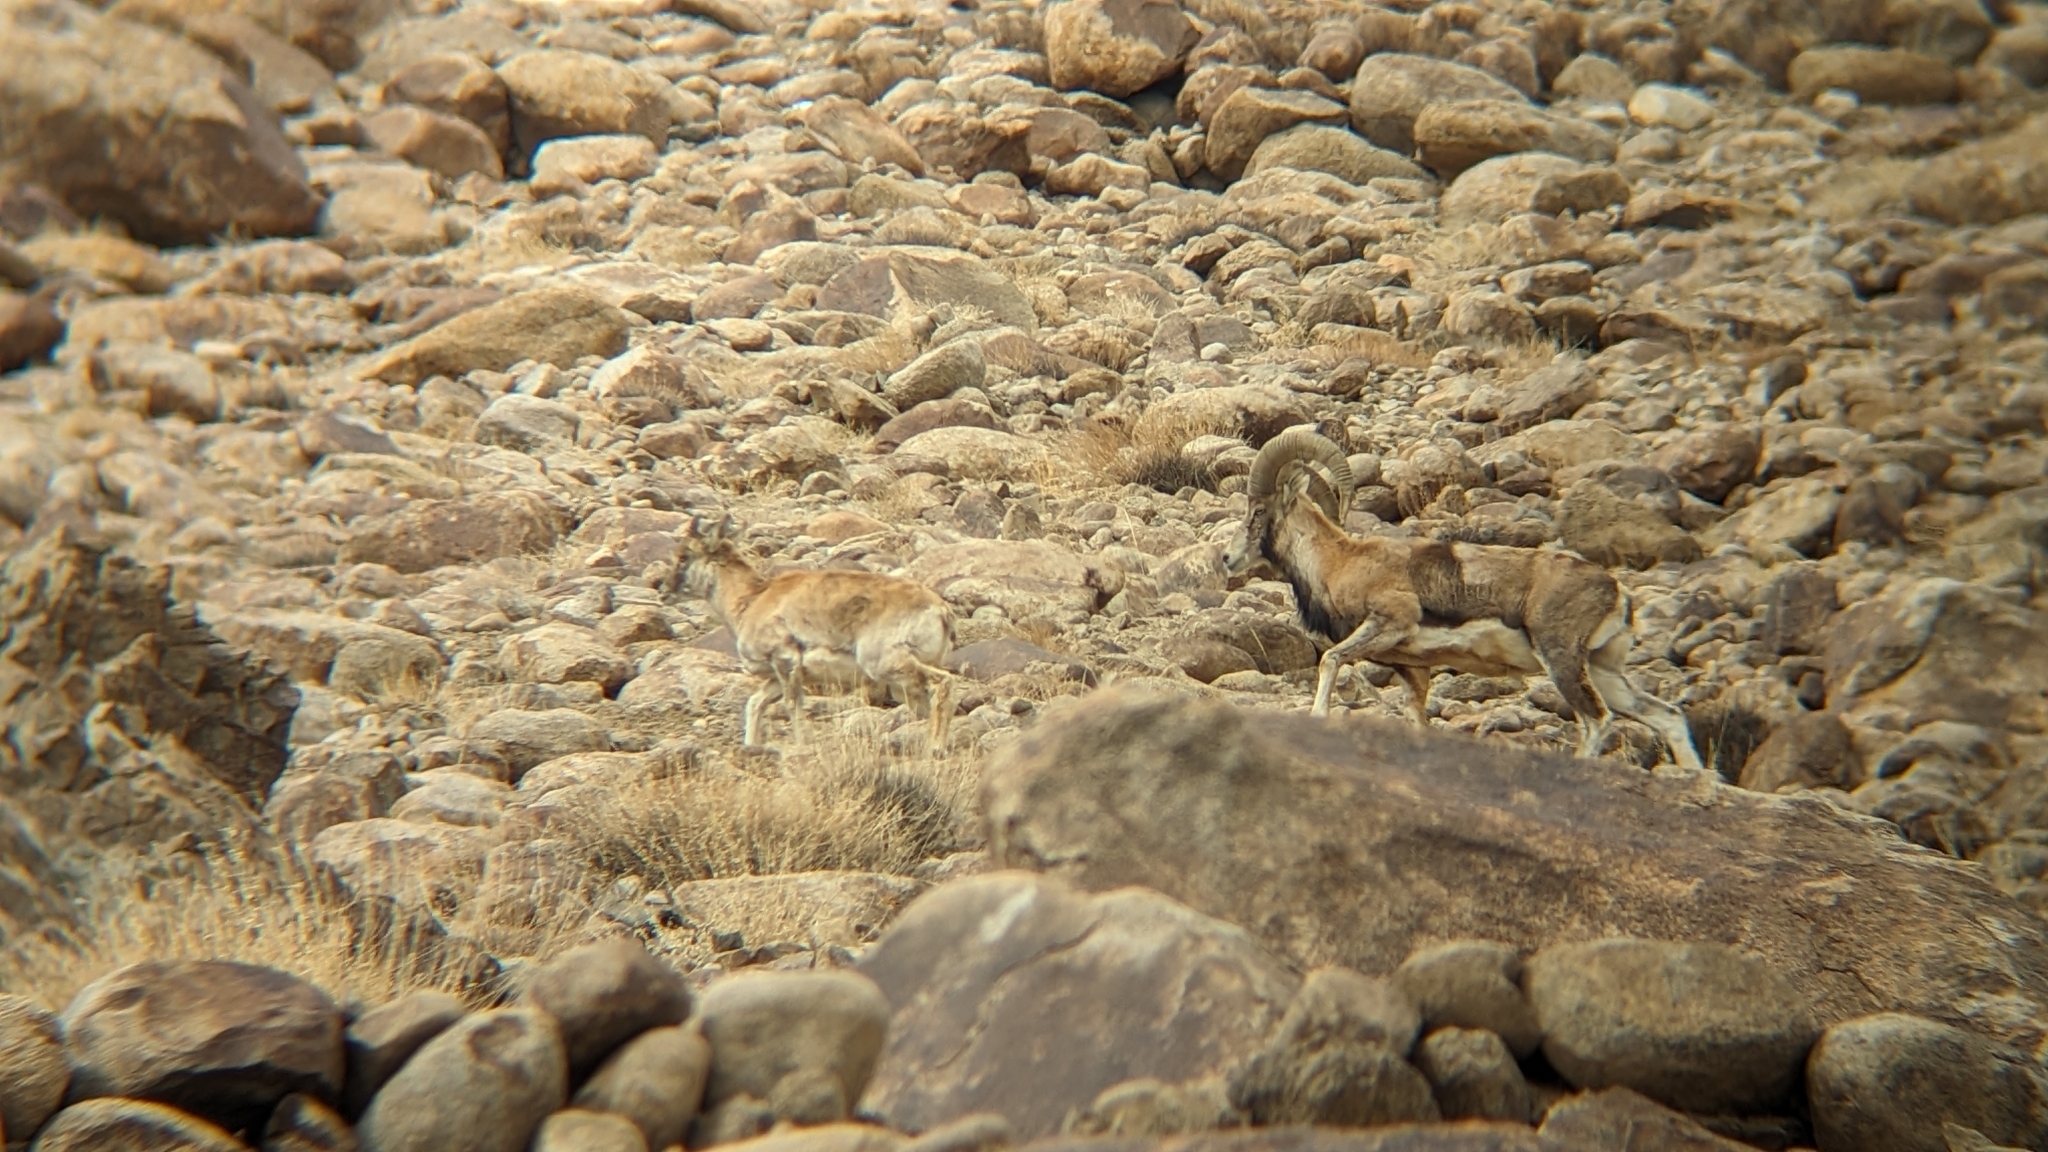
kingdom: Animalia
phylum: Chordata
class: Mammalia
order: Artiodactyla
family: Bovidae
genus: Ovis
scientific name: Ovis aries
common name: Domestic sheep
